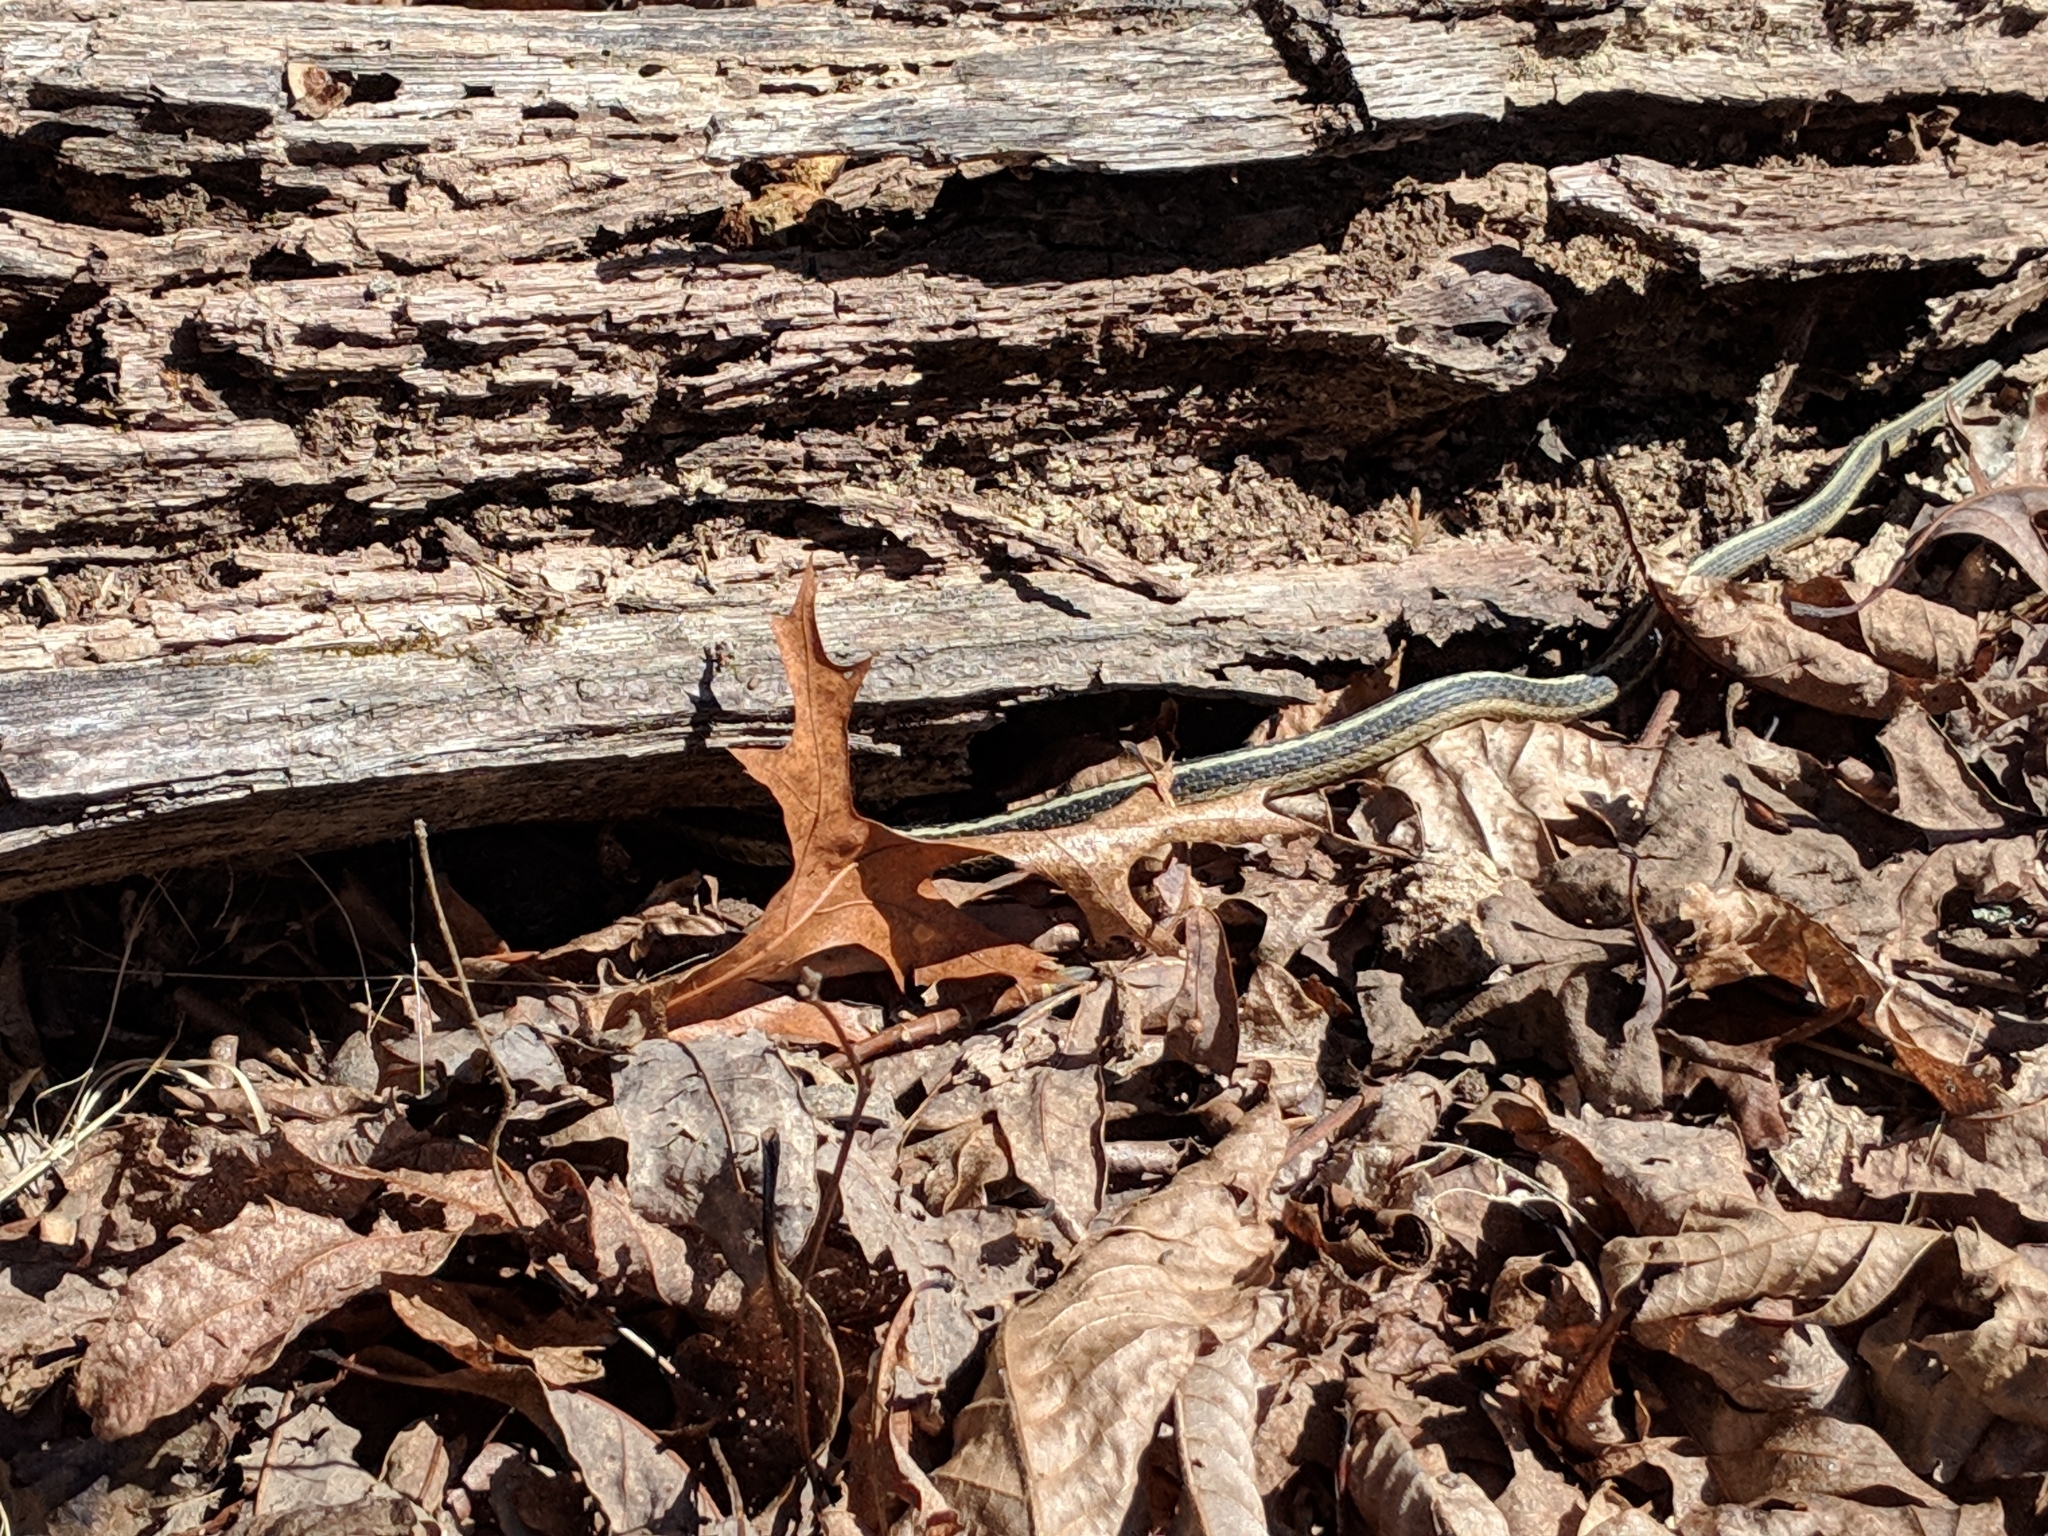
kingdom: Animalia
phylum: Chordata
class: Squamata
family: Colubridae
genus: Thamnophis
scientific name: Thamnophis sirtalis
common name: Common garter snake
